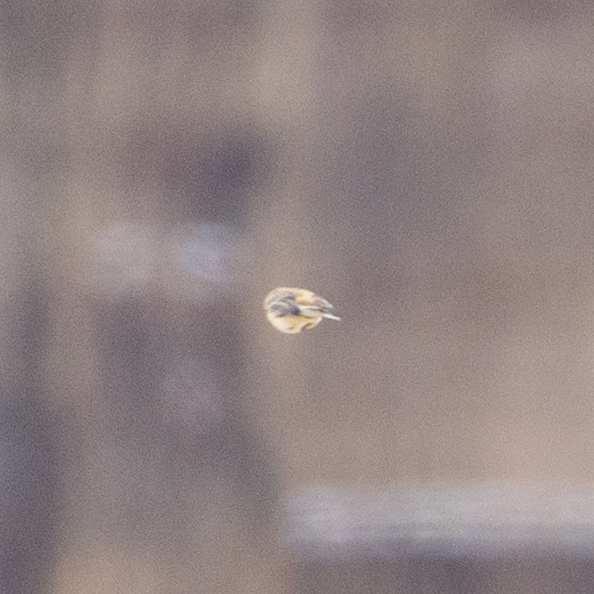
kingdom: Animalia
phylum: Chordata
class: Aves
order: Passeriformes
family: Motacillidae
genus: Anthus
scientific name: Anthus pratensis
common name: Meadow pipit
